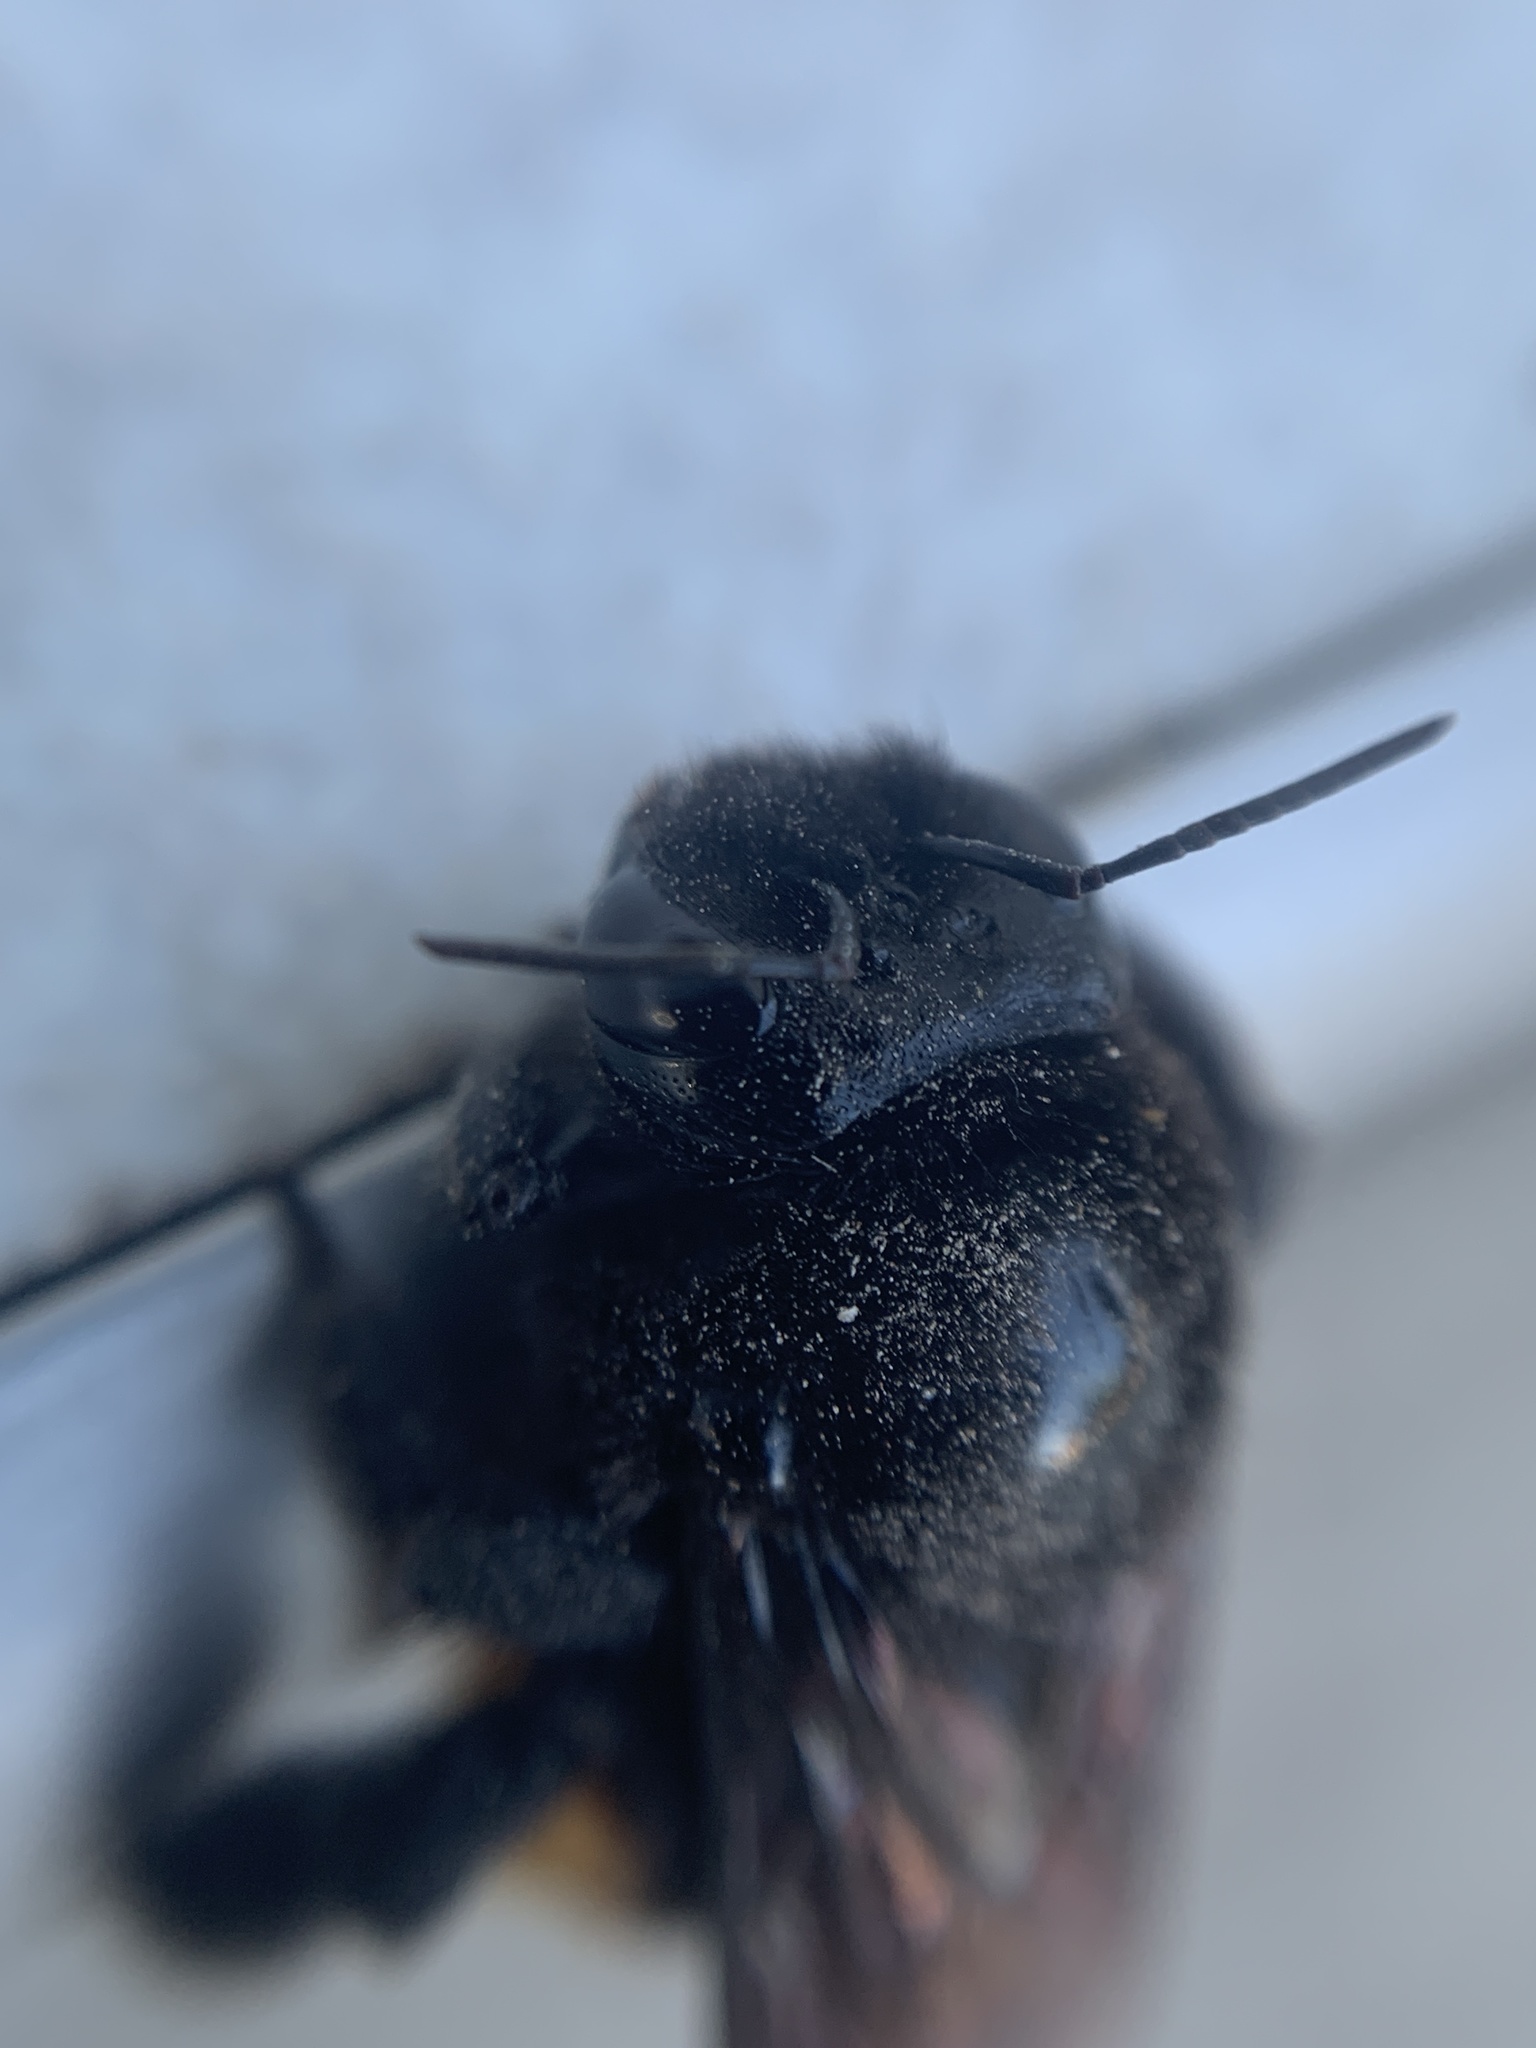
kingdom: Animalia
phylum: Arthropoda
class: Insecta
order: Hymenoptera
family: Apidae
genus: Xylocopa
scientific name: Xylocopa augusti
